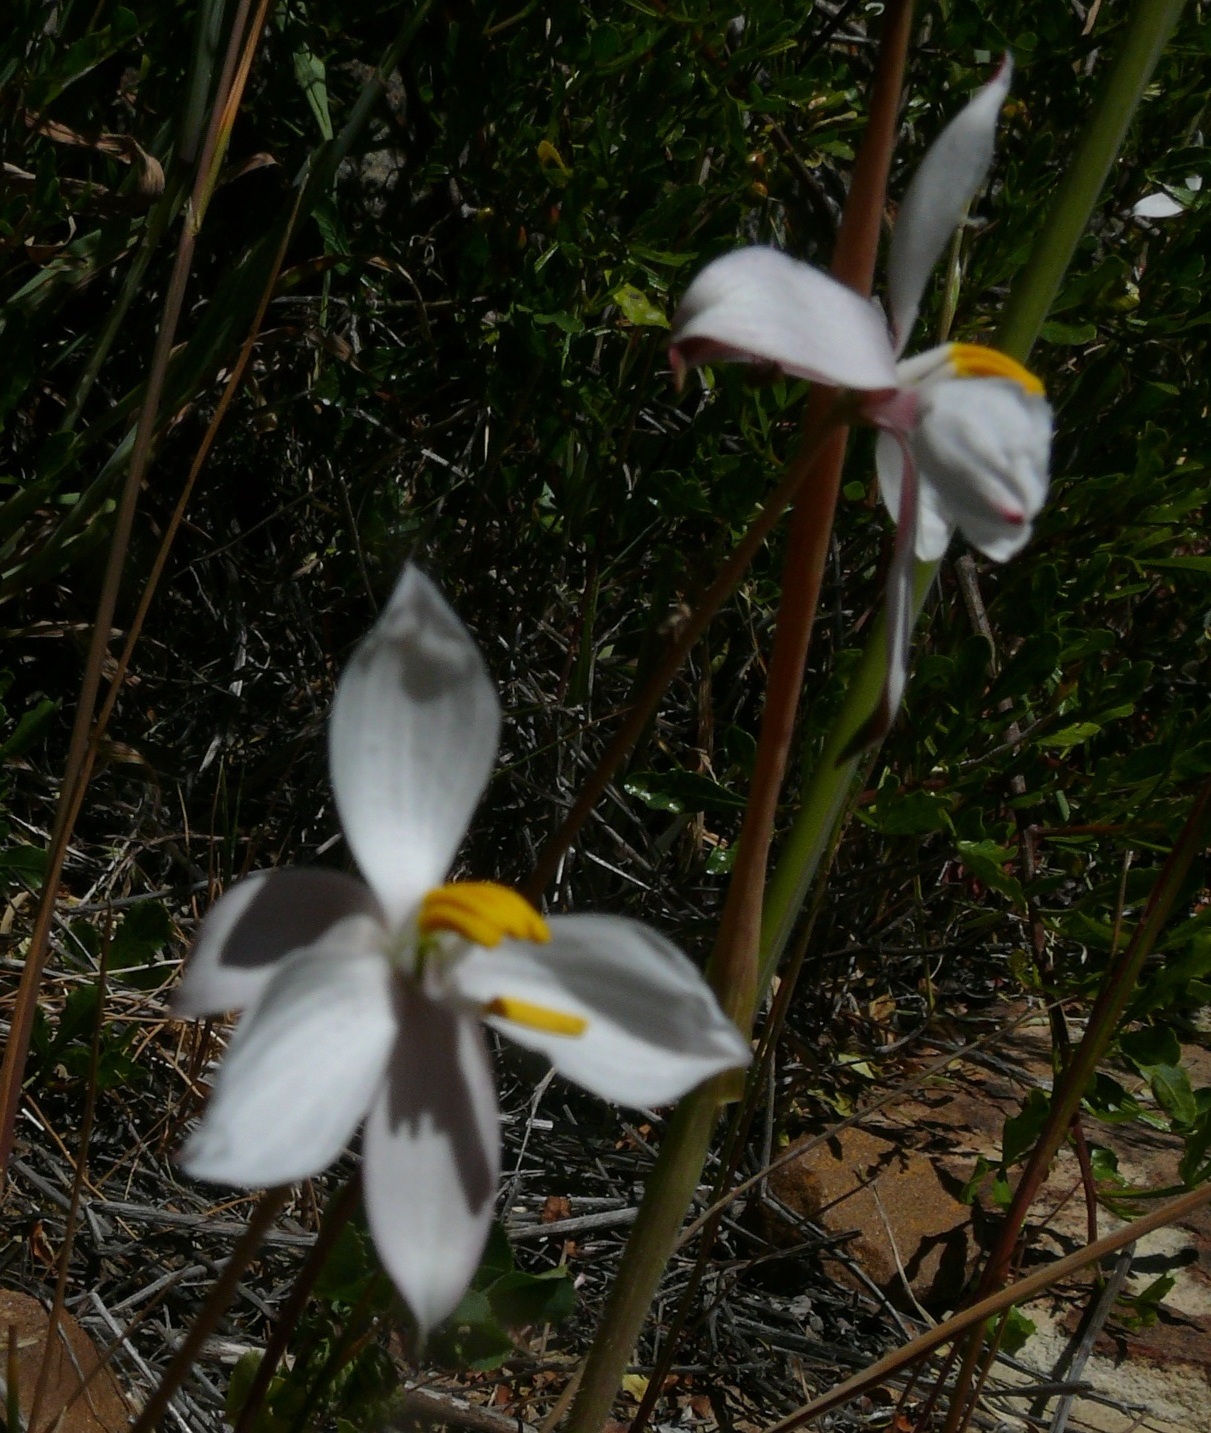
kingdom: Plantae
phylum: Tracheophyta
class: Liliopsida
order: Asparagales
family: Tecophilaeaceae
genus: Cyanella
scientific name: Cyanella alba
